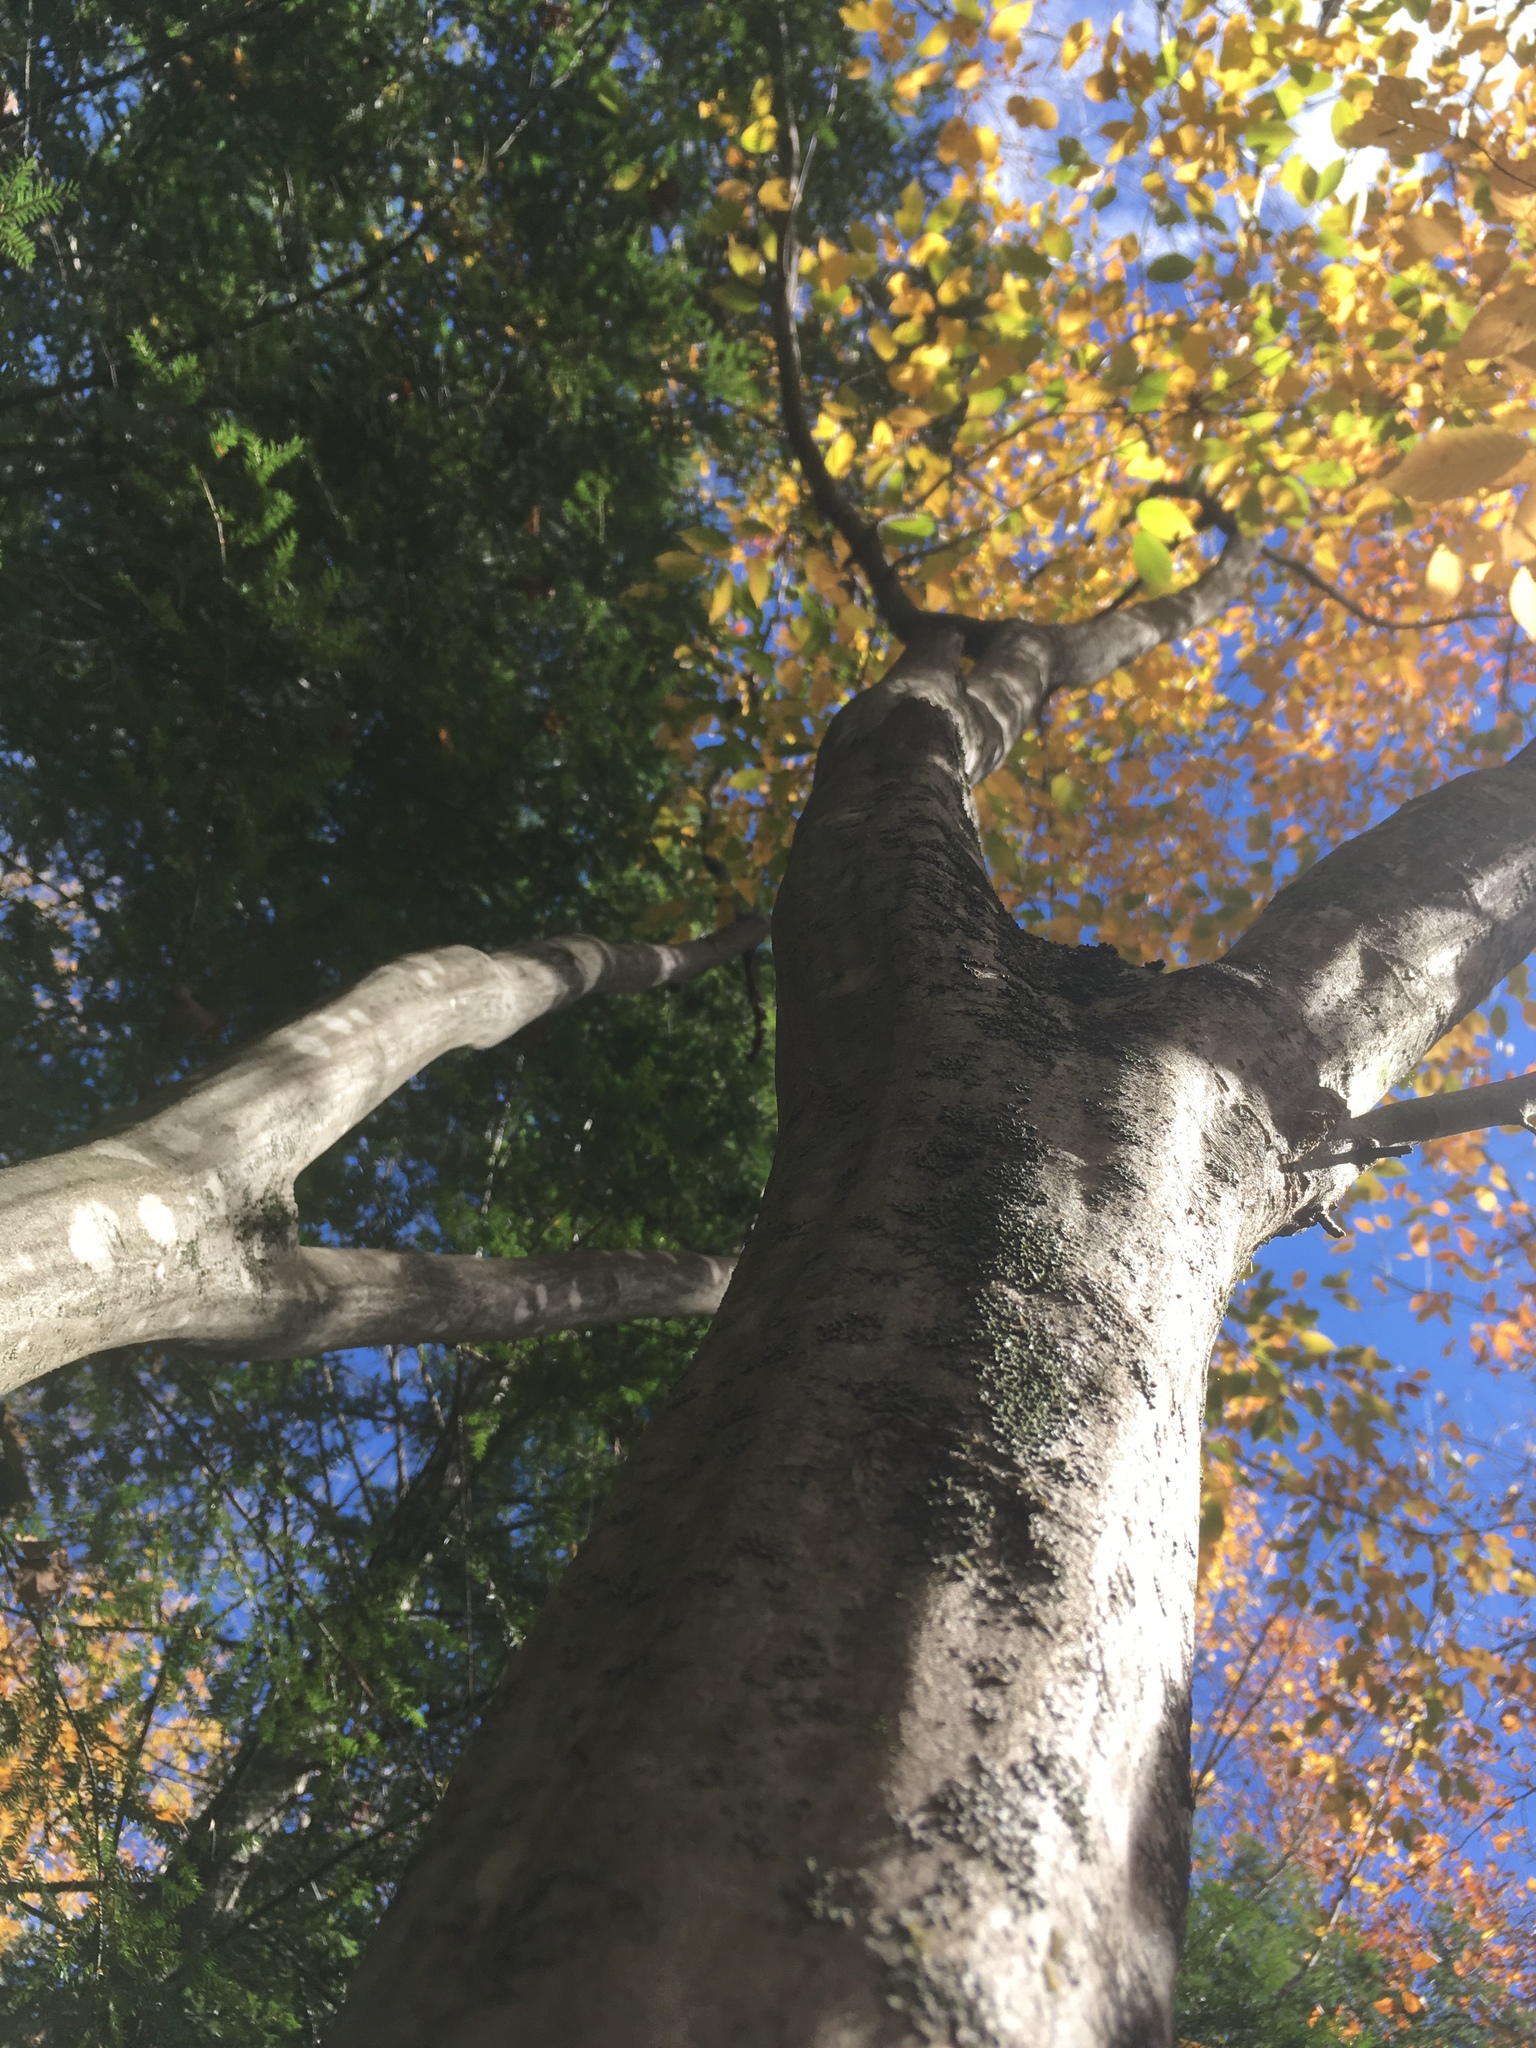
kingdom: Plantae
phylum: Tracheophyta
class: Magnoliopsida
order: Fagales
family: Betulaceae
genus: Carpinus
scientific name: Carpinus caroliniana
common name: American hornbeam
